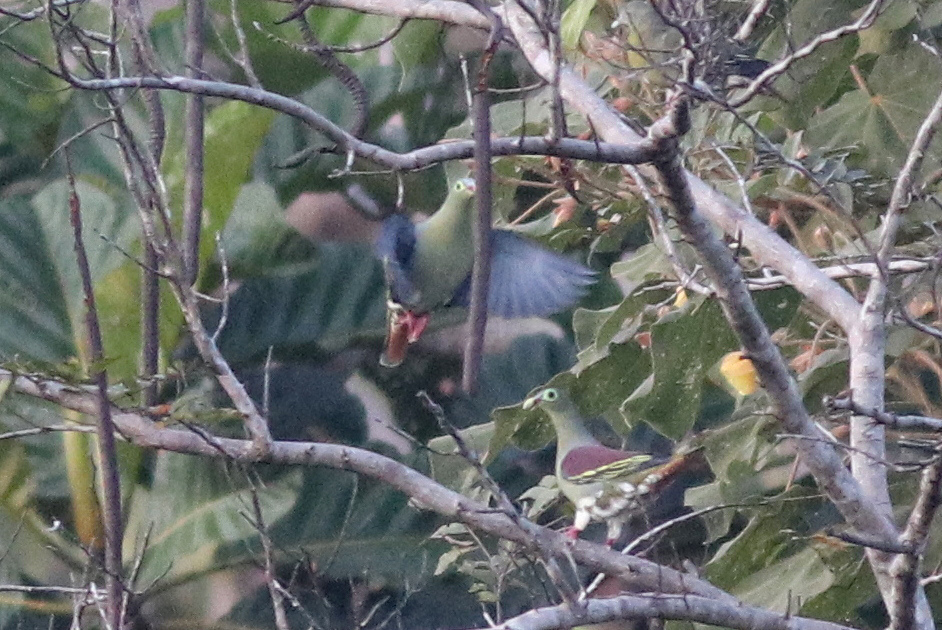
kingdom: Animalia
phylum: Chordata
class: Aves
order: Columbiformes
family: Columbidae
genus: Treron
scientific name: Treron curvirostra
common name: Thick-billed green pigeon
